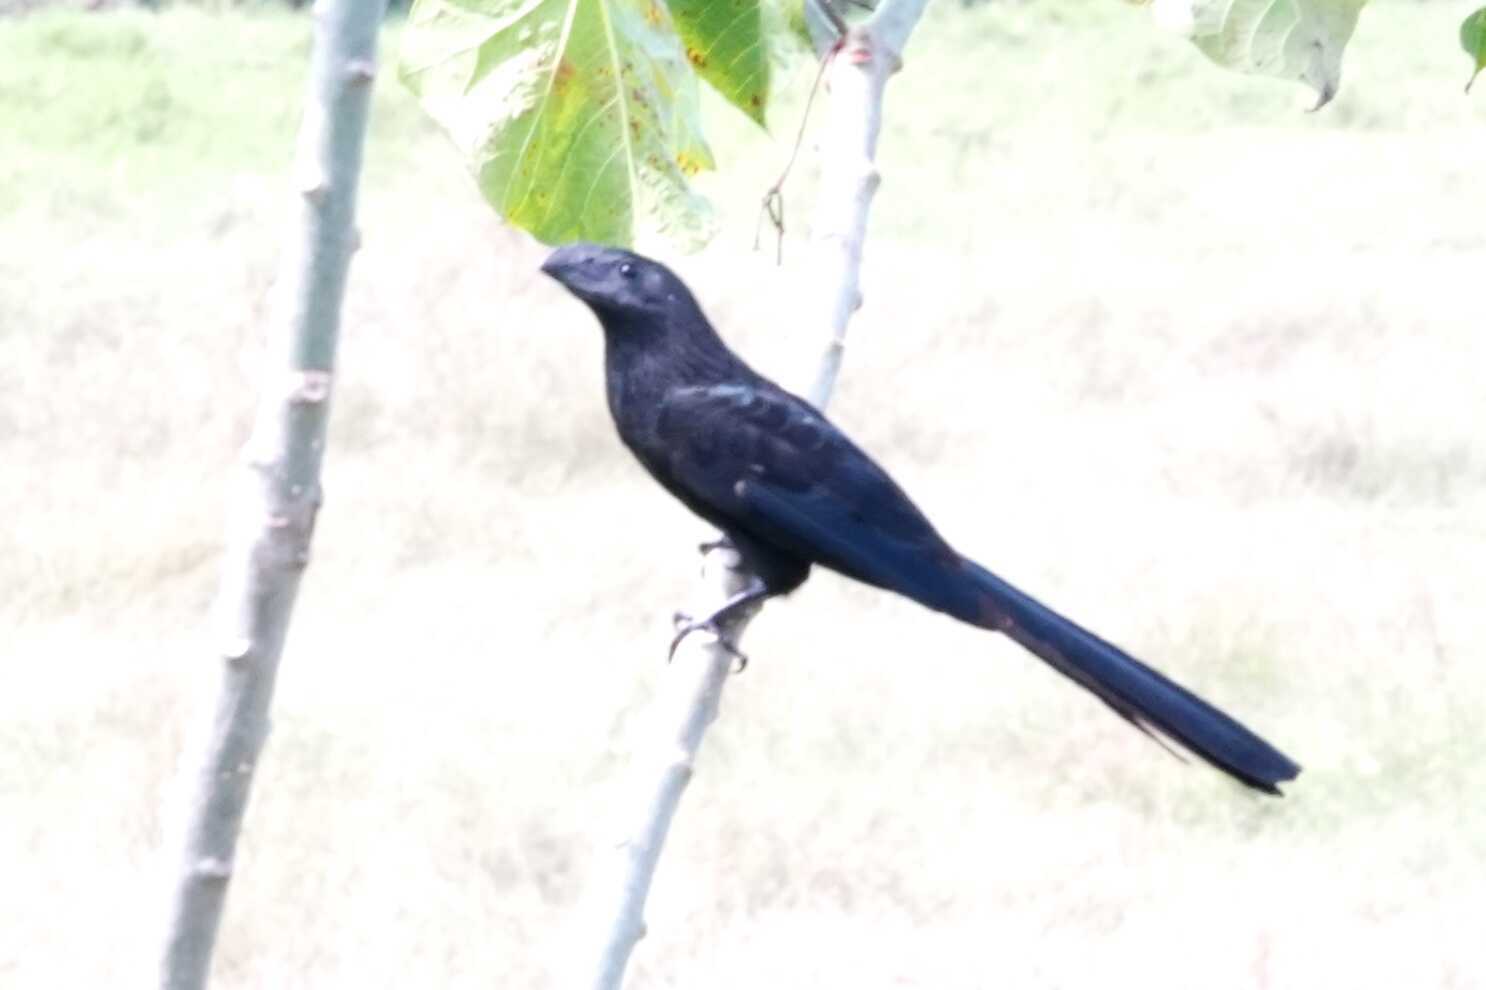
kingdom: Animalia
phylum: Chordata
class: Aves
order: Cuculiformes
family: Cuculidae
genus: Crotophaga
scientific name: Crotophaga ani
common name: Smooth-billed ani
